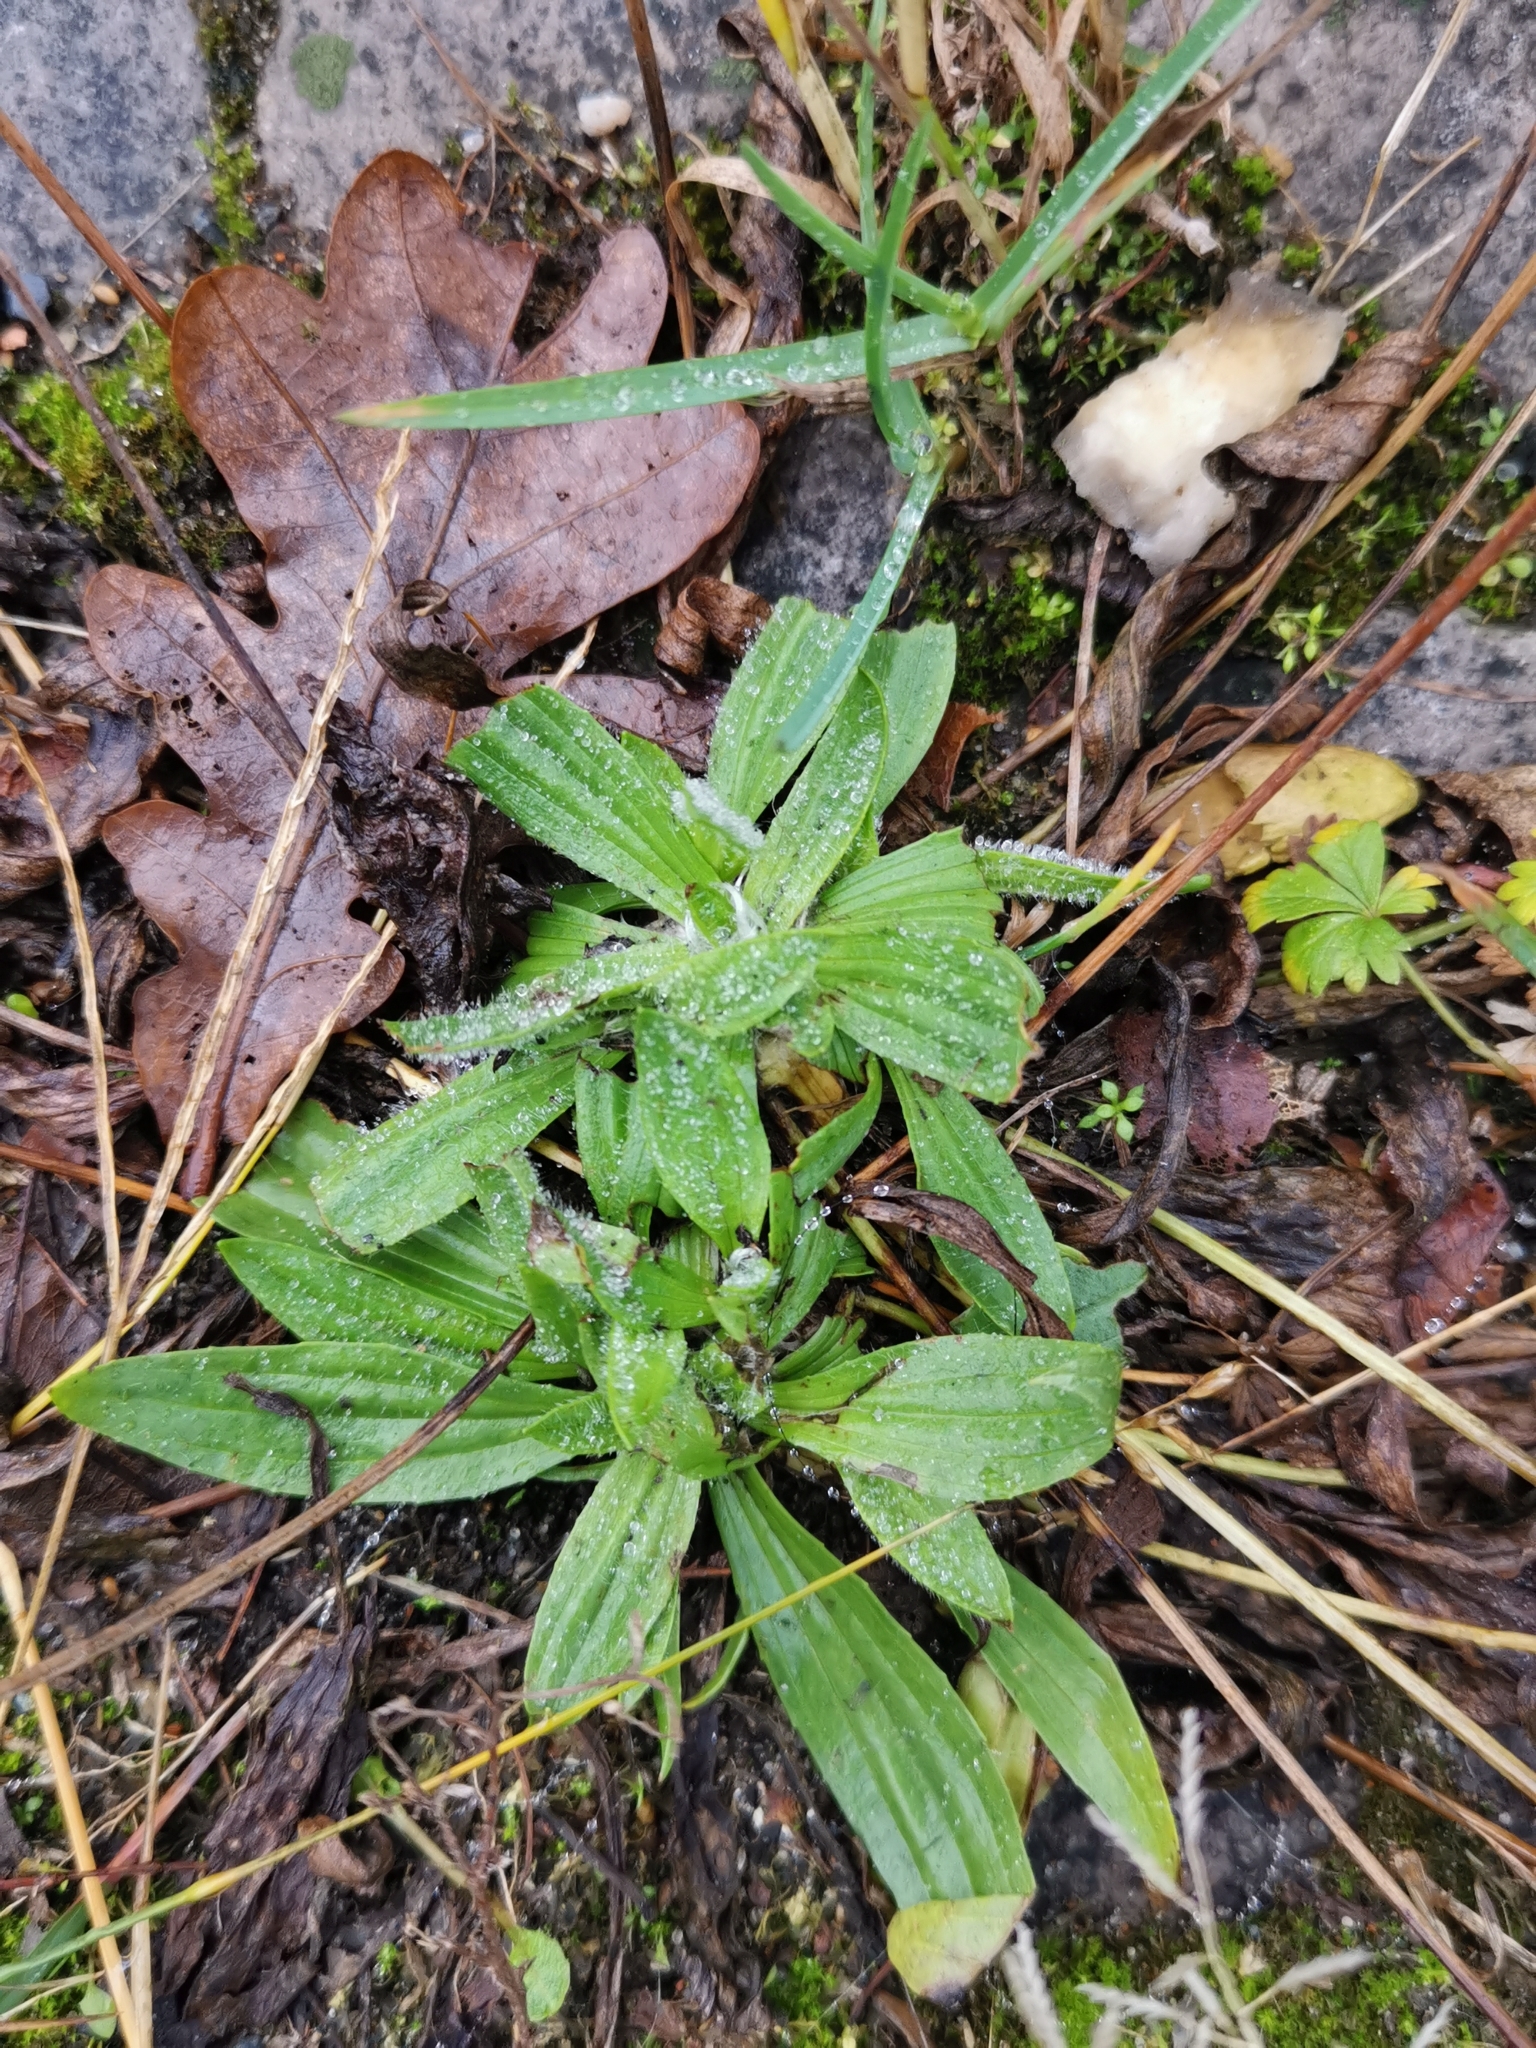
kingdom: Plantae
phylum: Tracheophyta
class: Magnoliopsida
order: Lamiales
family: Plantaginaceae
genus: Plantago
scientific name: Plantago lanceolata
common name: Ribwort plantain
